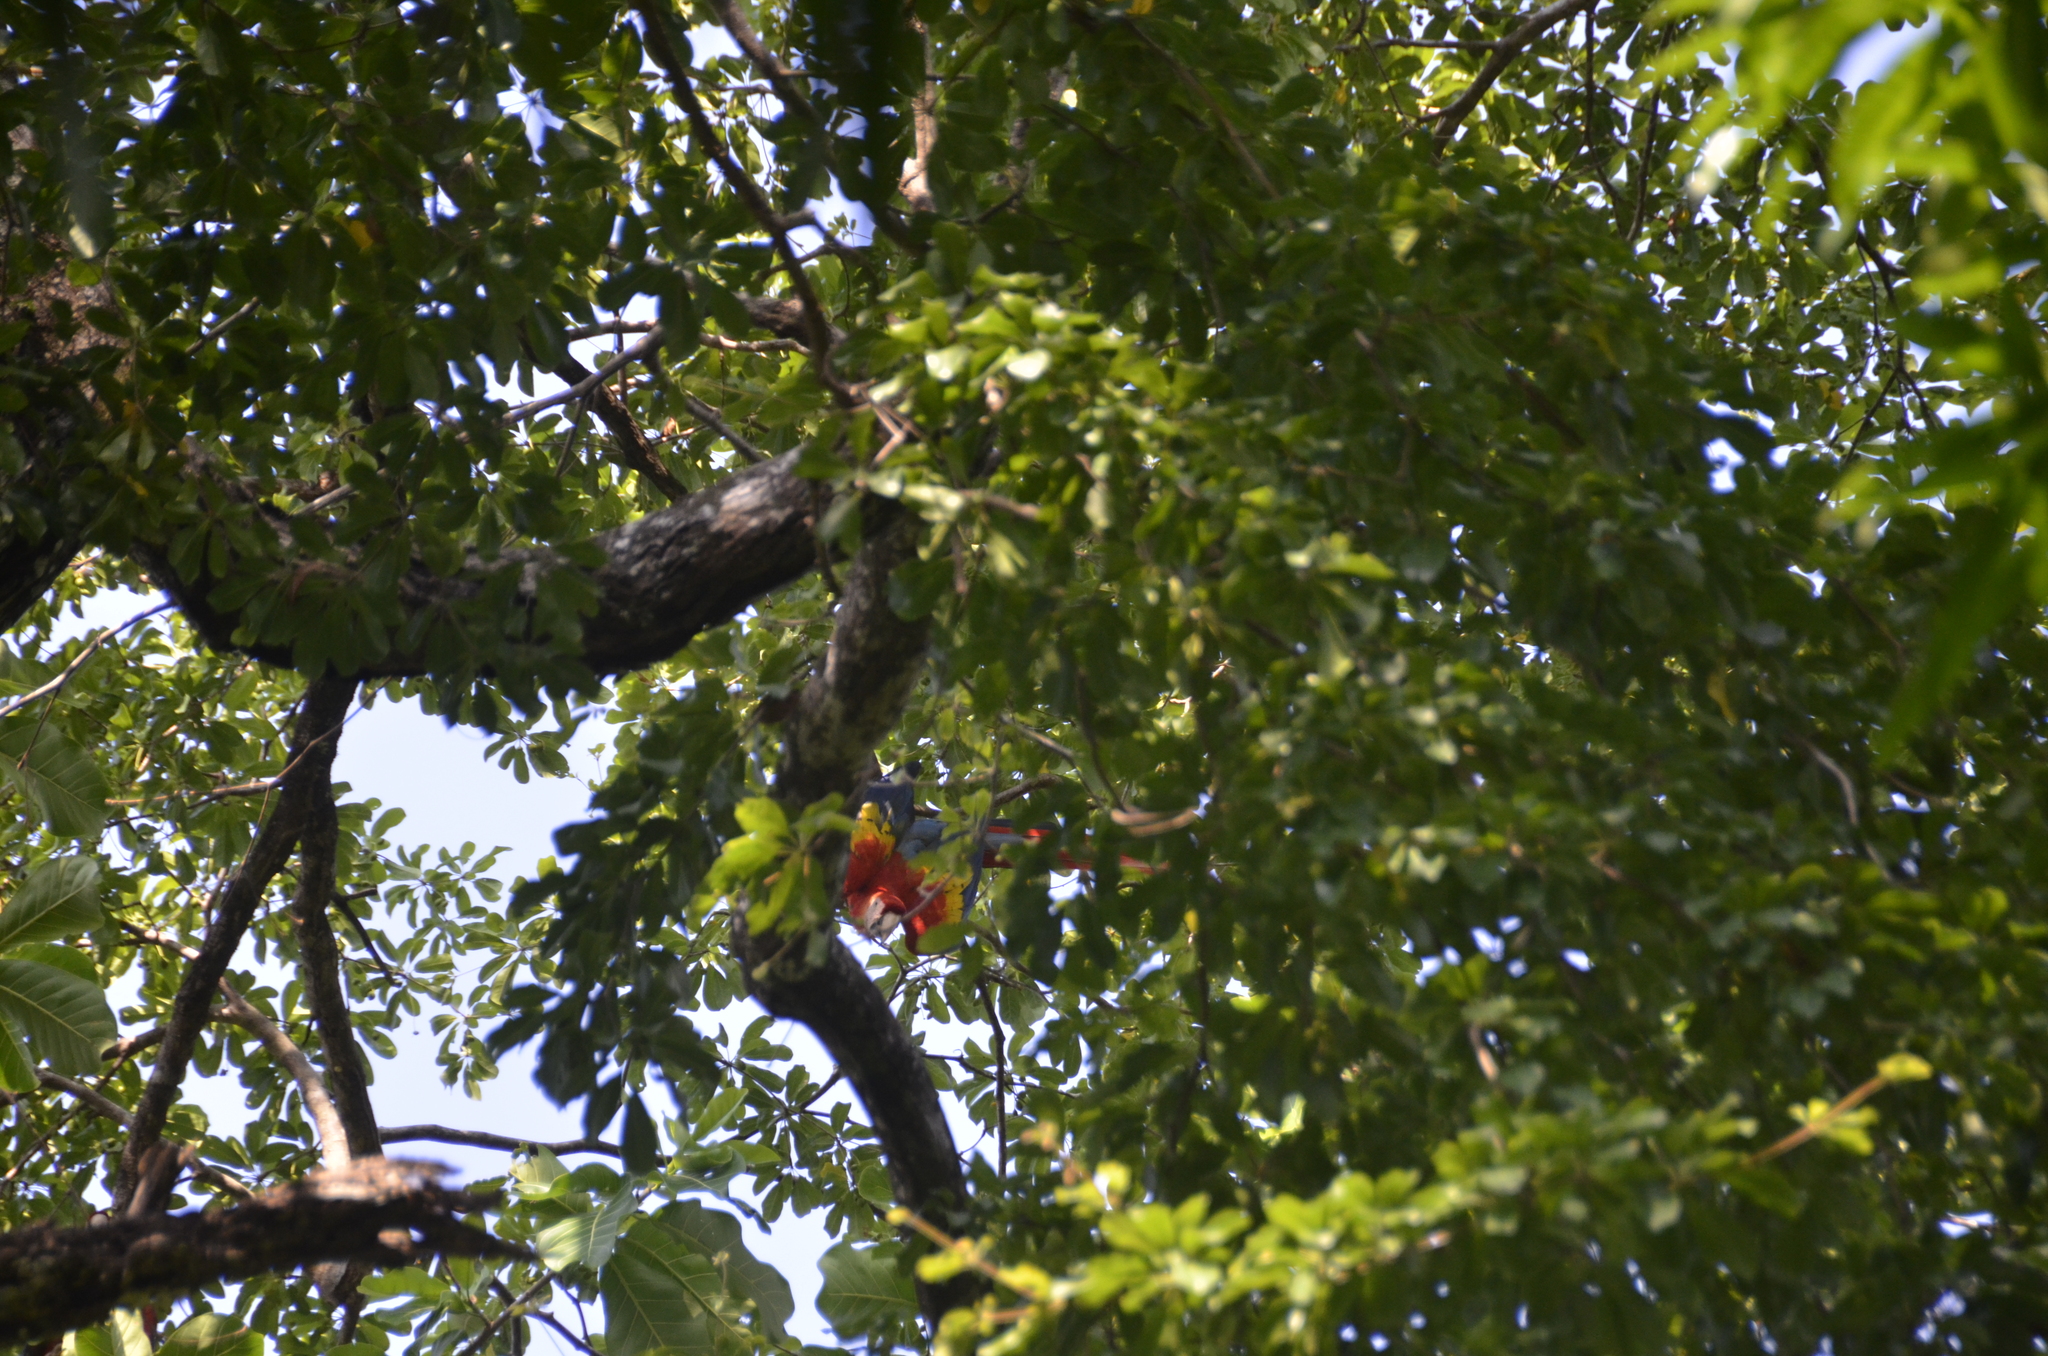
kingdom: Animalia
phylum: Chordata
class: Aves
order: Psittaciformes
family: Psittacidae
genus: Ara
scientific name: Ara macao
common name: Scarlet macaw
